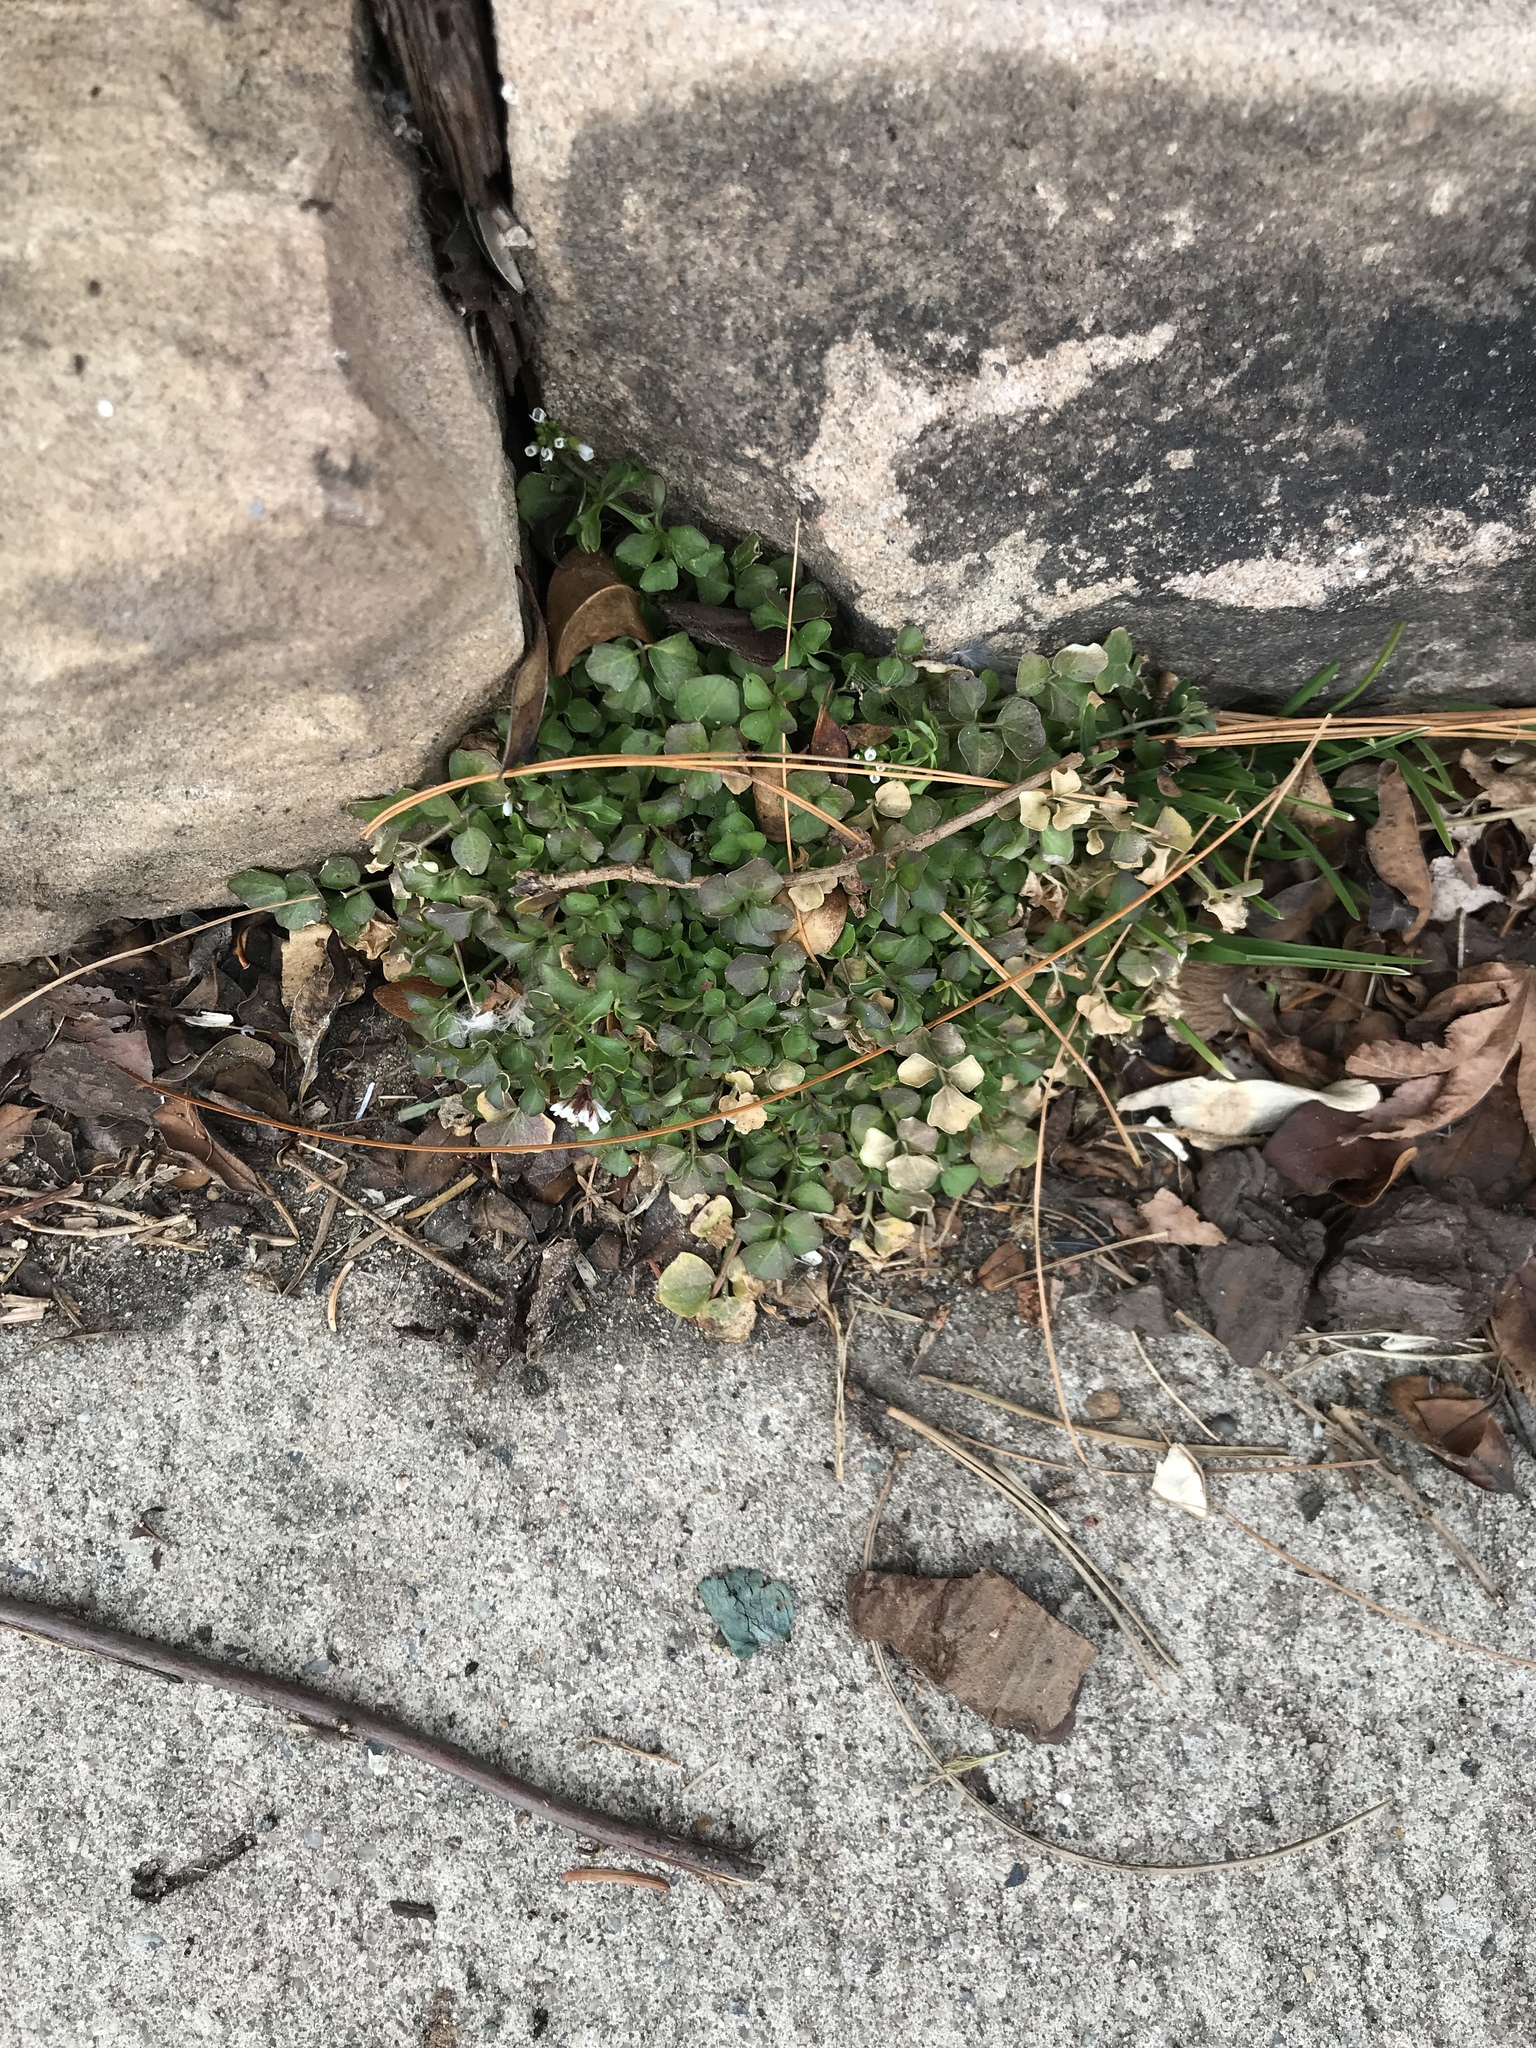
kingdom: Plantae
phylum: Tracheophyta
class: Magnoliopsida
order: Brassicales
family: Brassicaceae
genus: Cardamine
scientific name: Cardamine hirsuta
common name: Hairy bittercress
